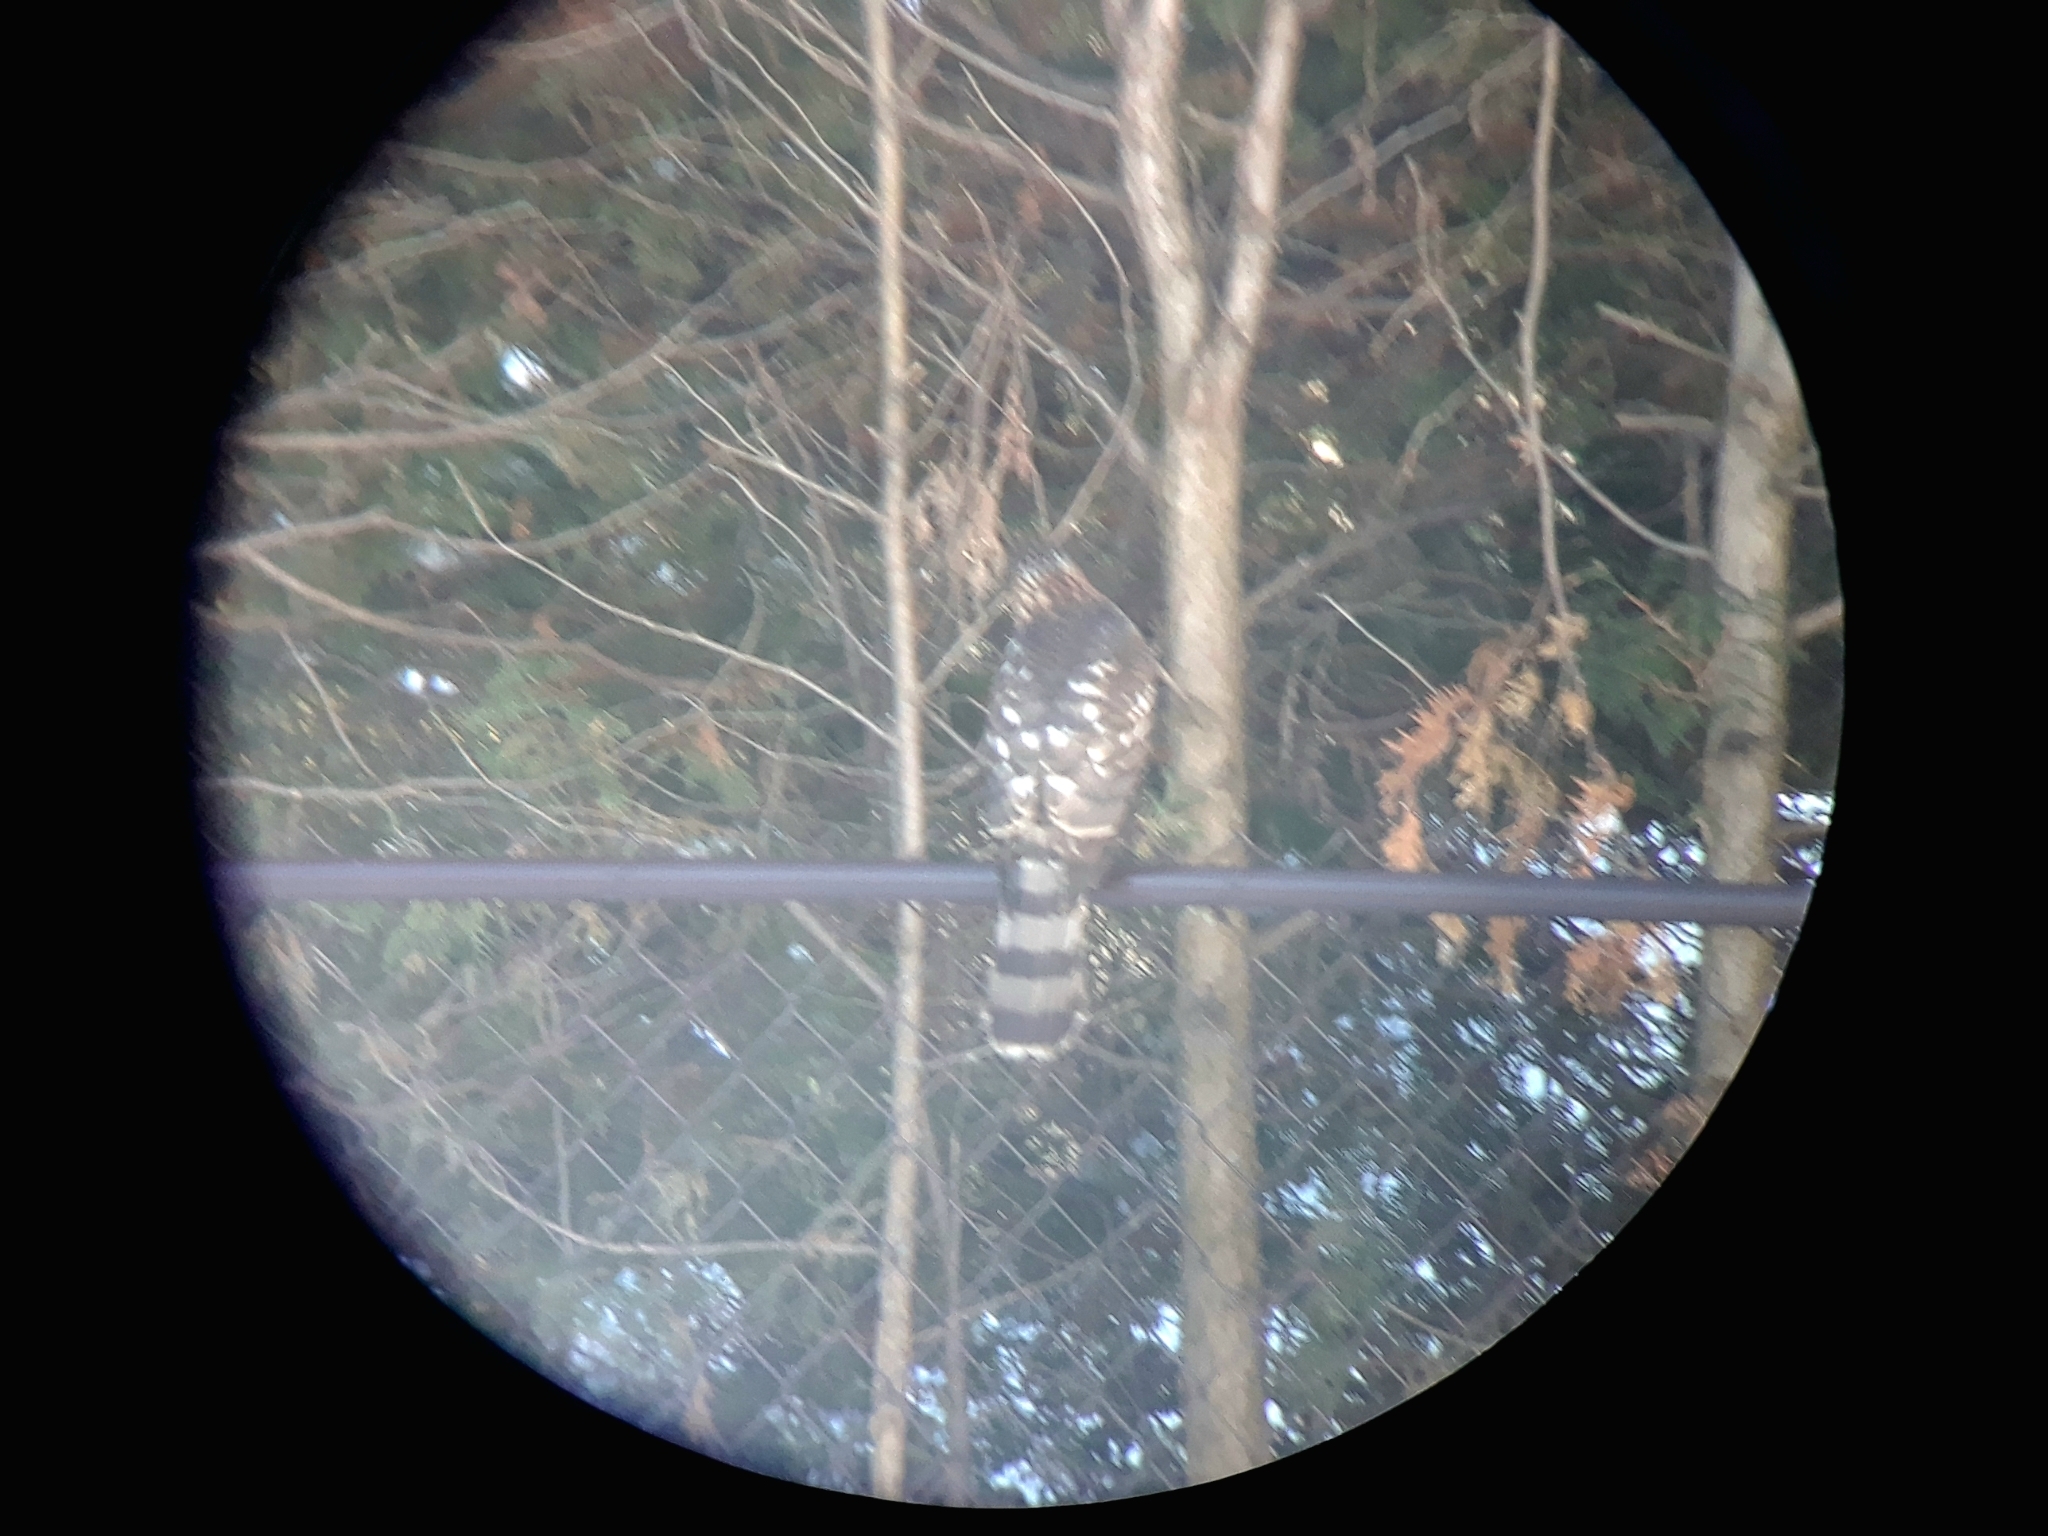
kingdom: Animalia
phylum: Chordata
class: Aves
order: Accipitriformes
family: Accipitridae
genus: Accipiter
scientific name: Accipiter cooperii
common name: Cooper's hawk
